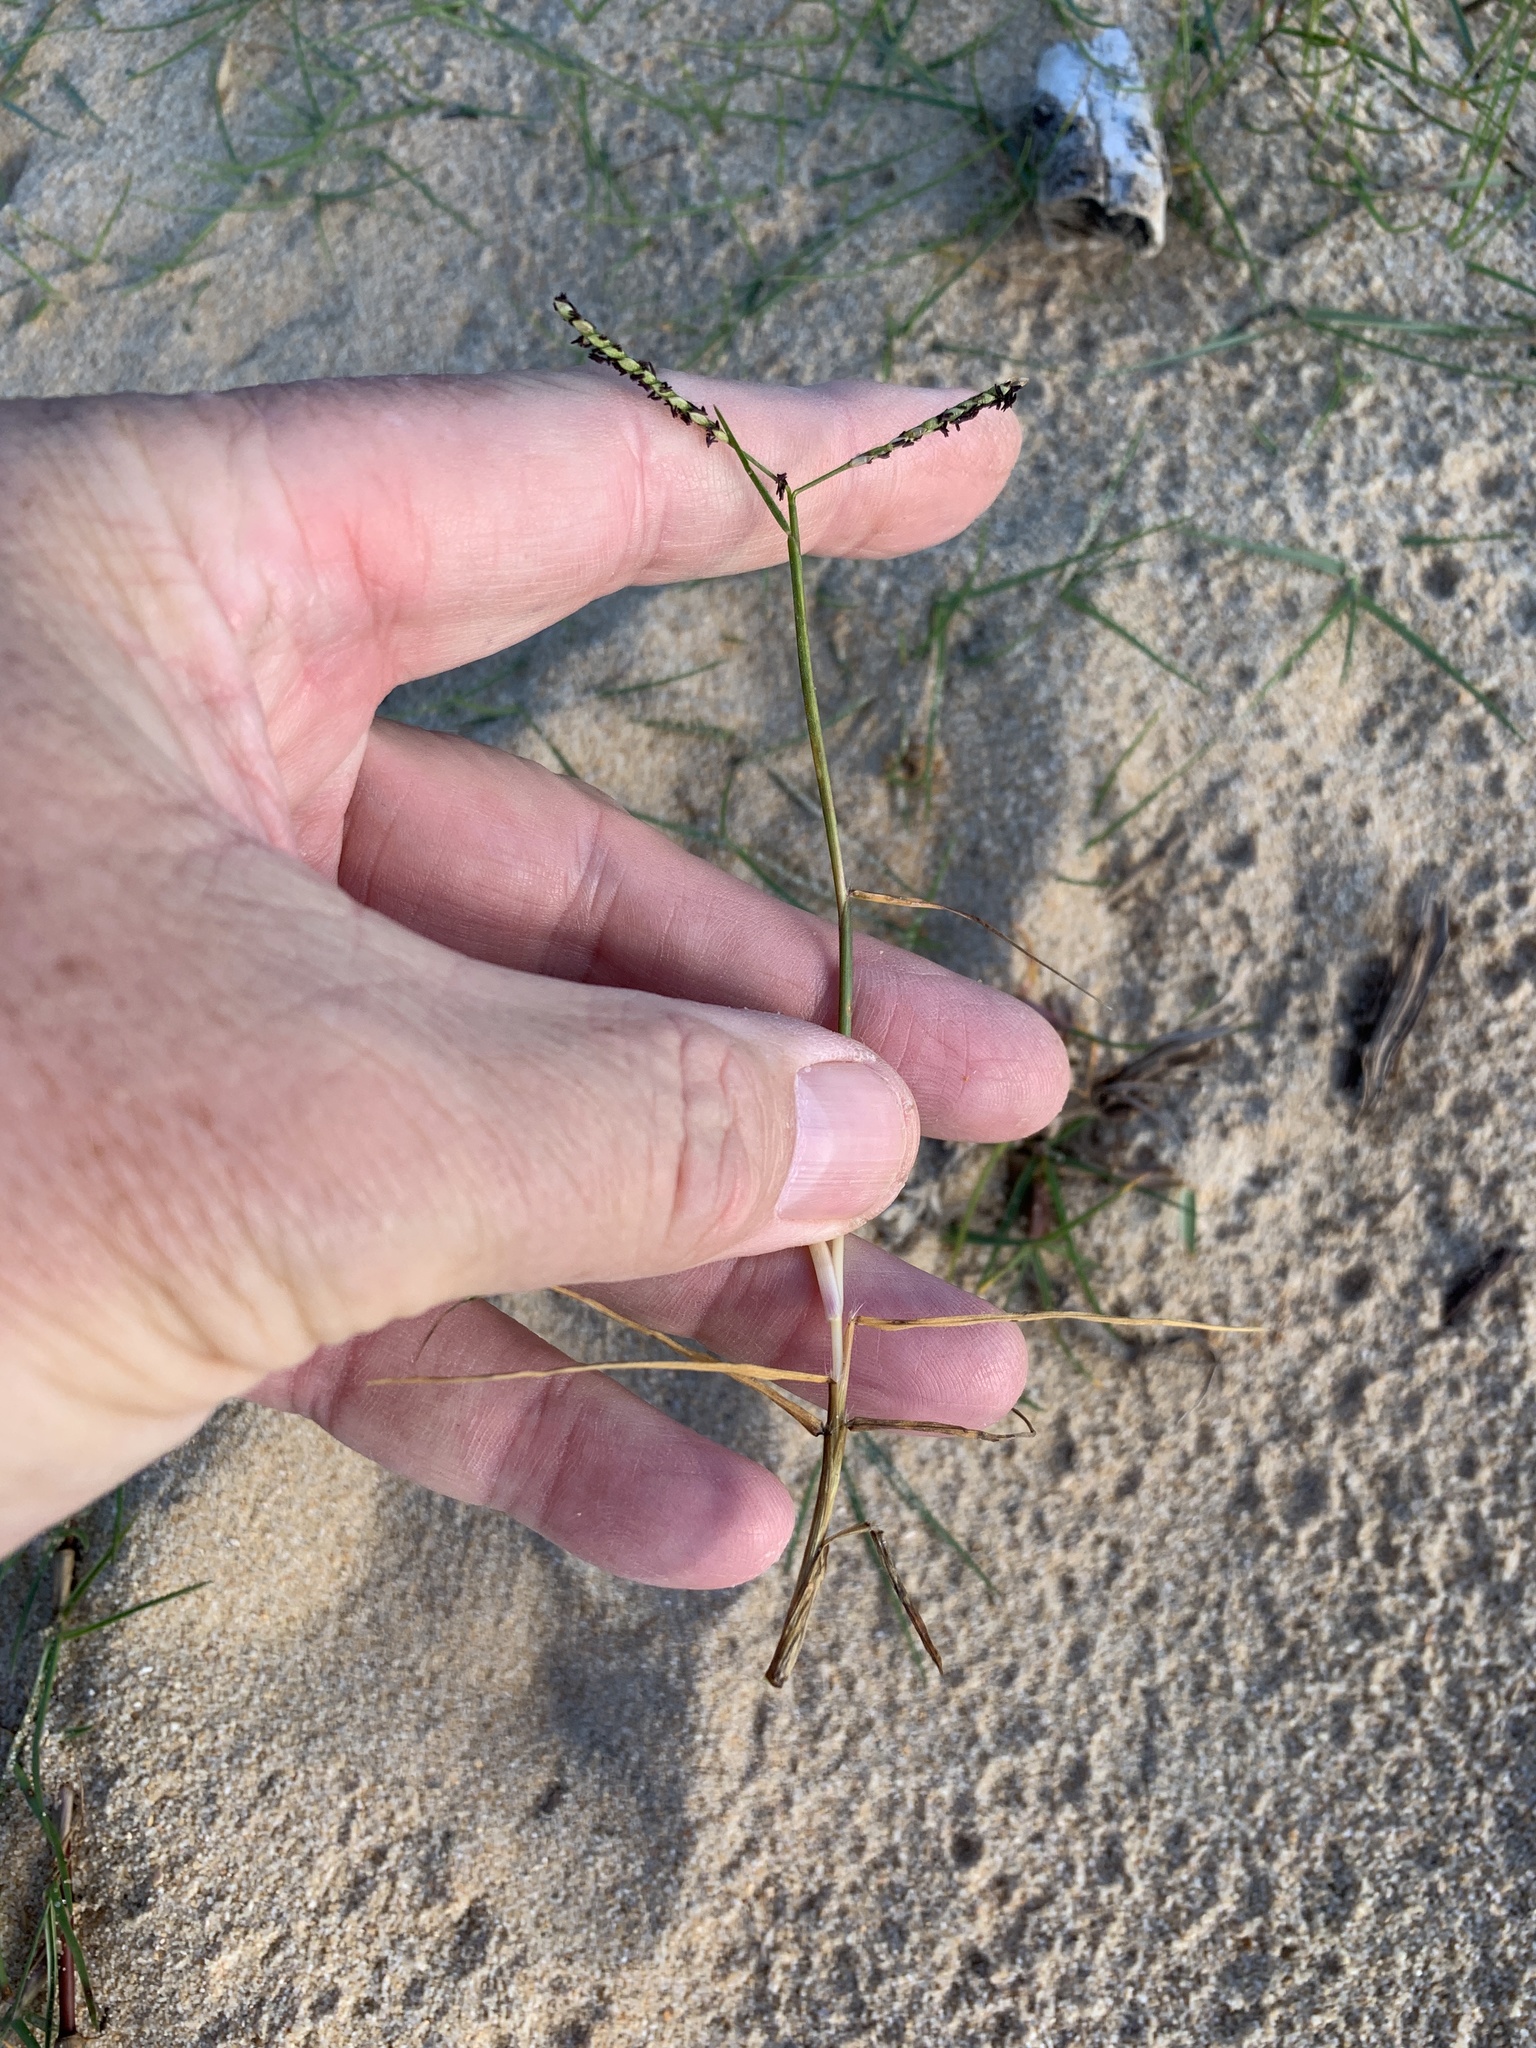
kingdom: Plantae
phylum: Tracheophyta
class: Liliopsida
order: Poales
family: Poaceae
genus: Paspalum
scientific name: Paspalum vaginatum
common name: Seashore paspalum
